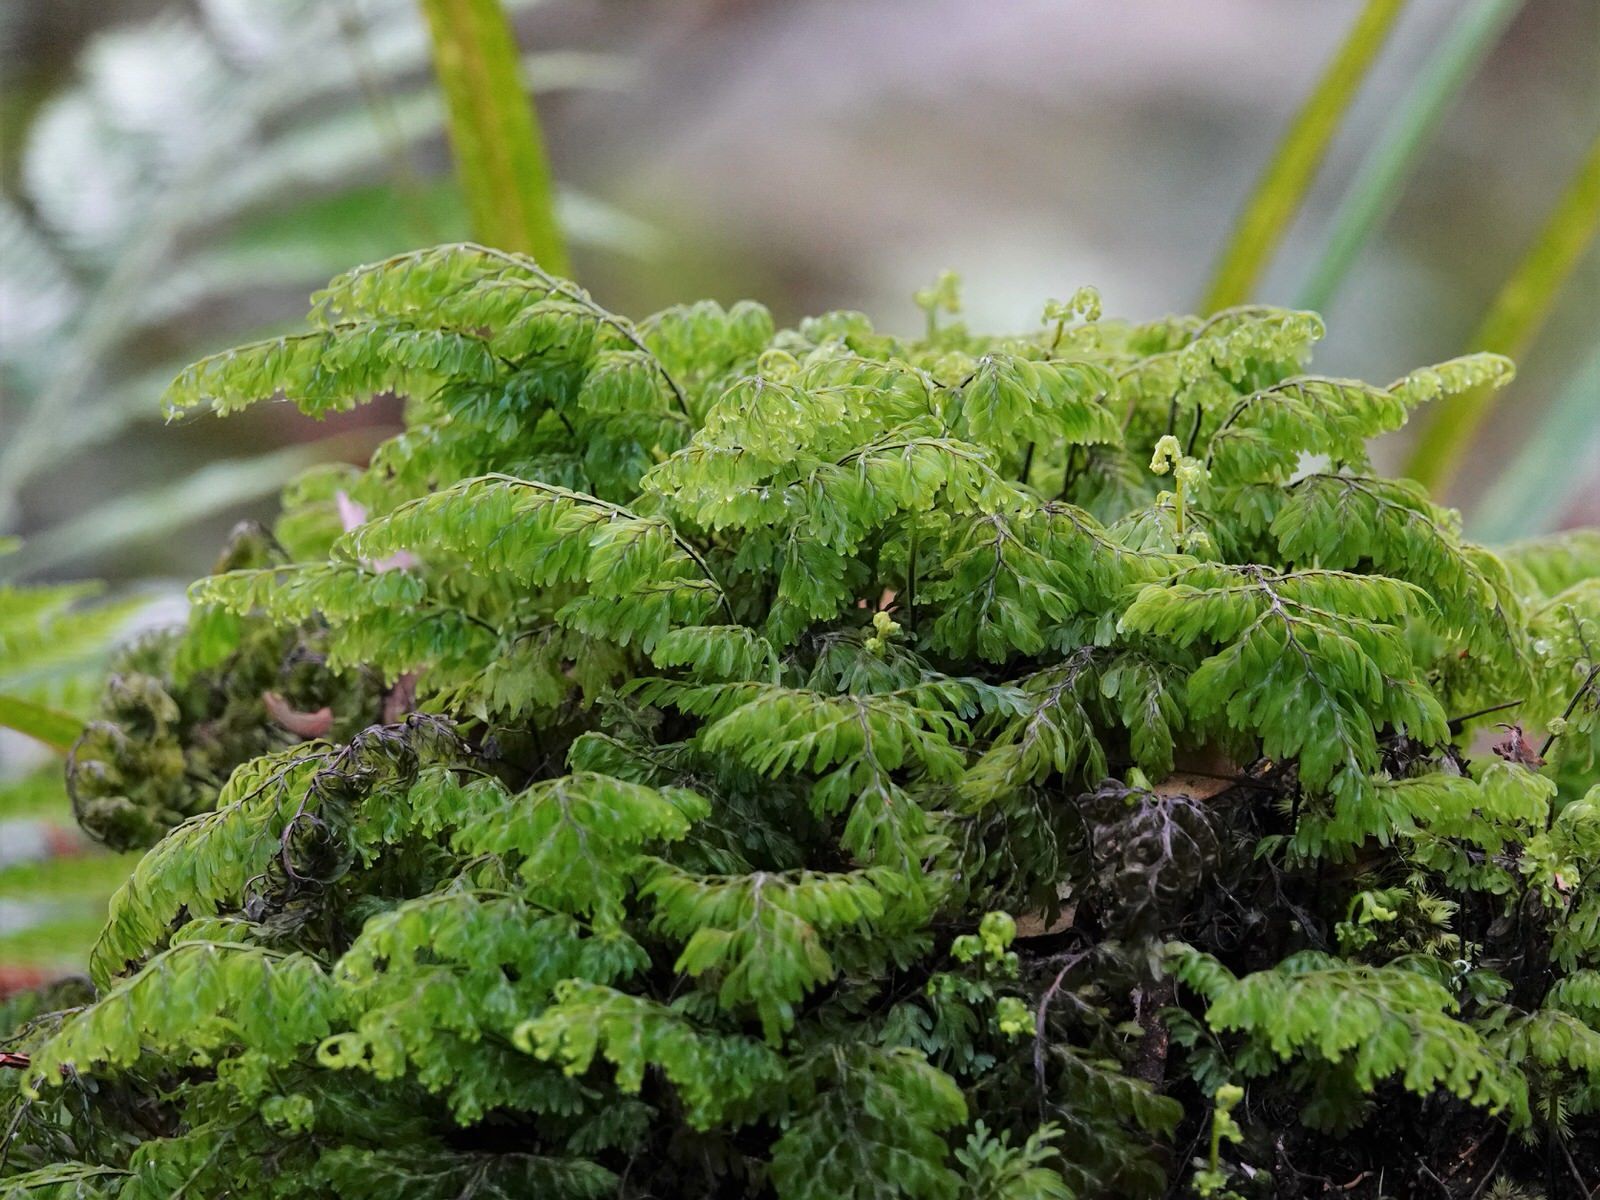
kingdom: Plantae
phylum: Tracheophyta
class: Polypodiopsida
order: Hymenophyllales
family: Hymenophyllaceae
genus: Hymenophyllum
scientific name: Hymenophyllum sanguinolentum
